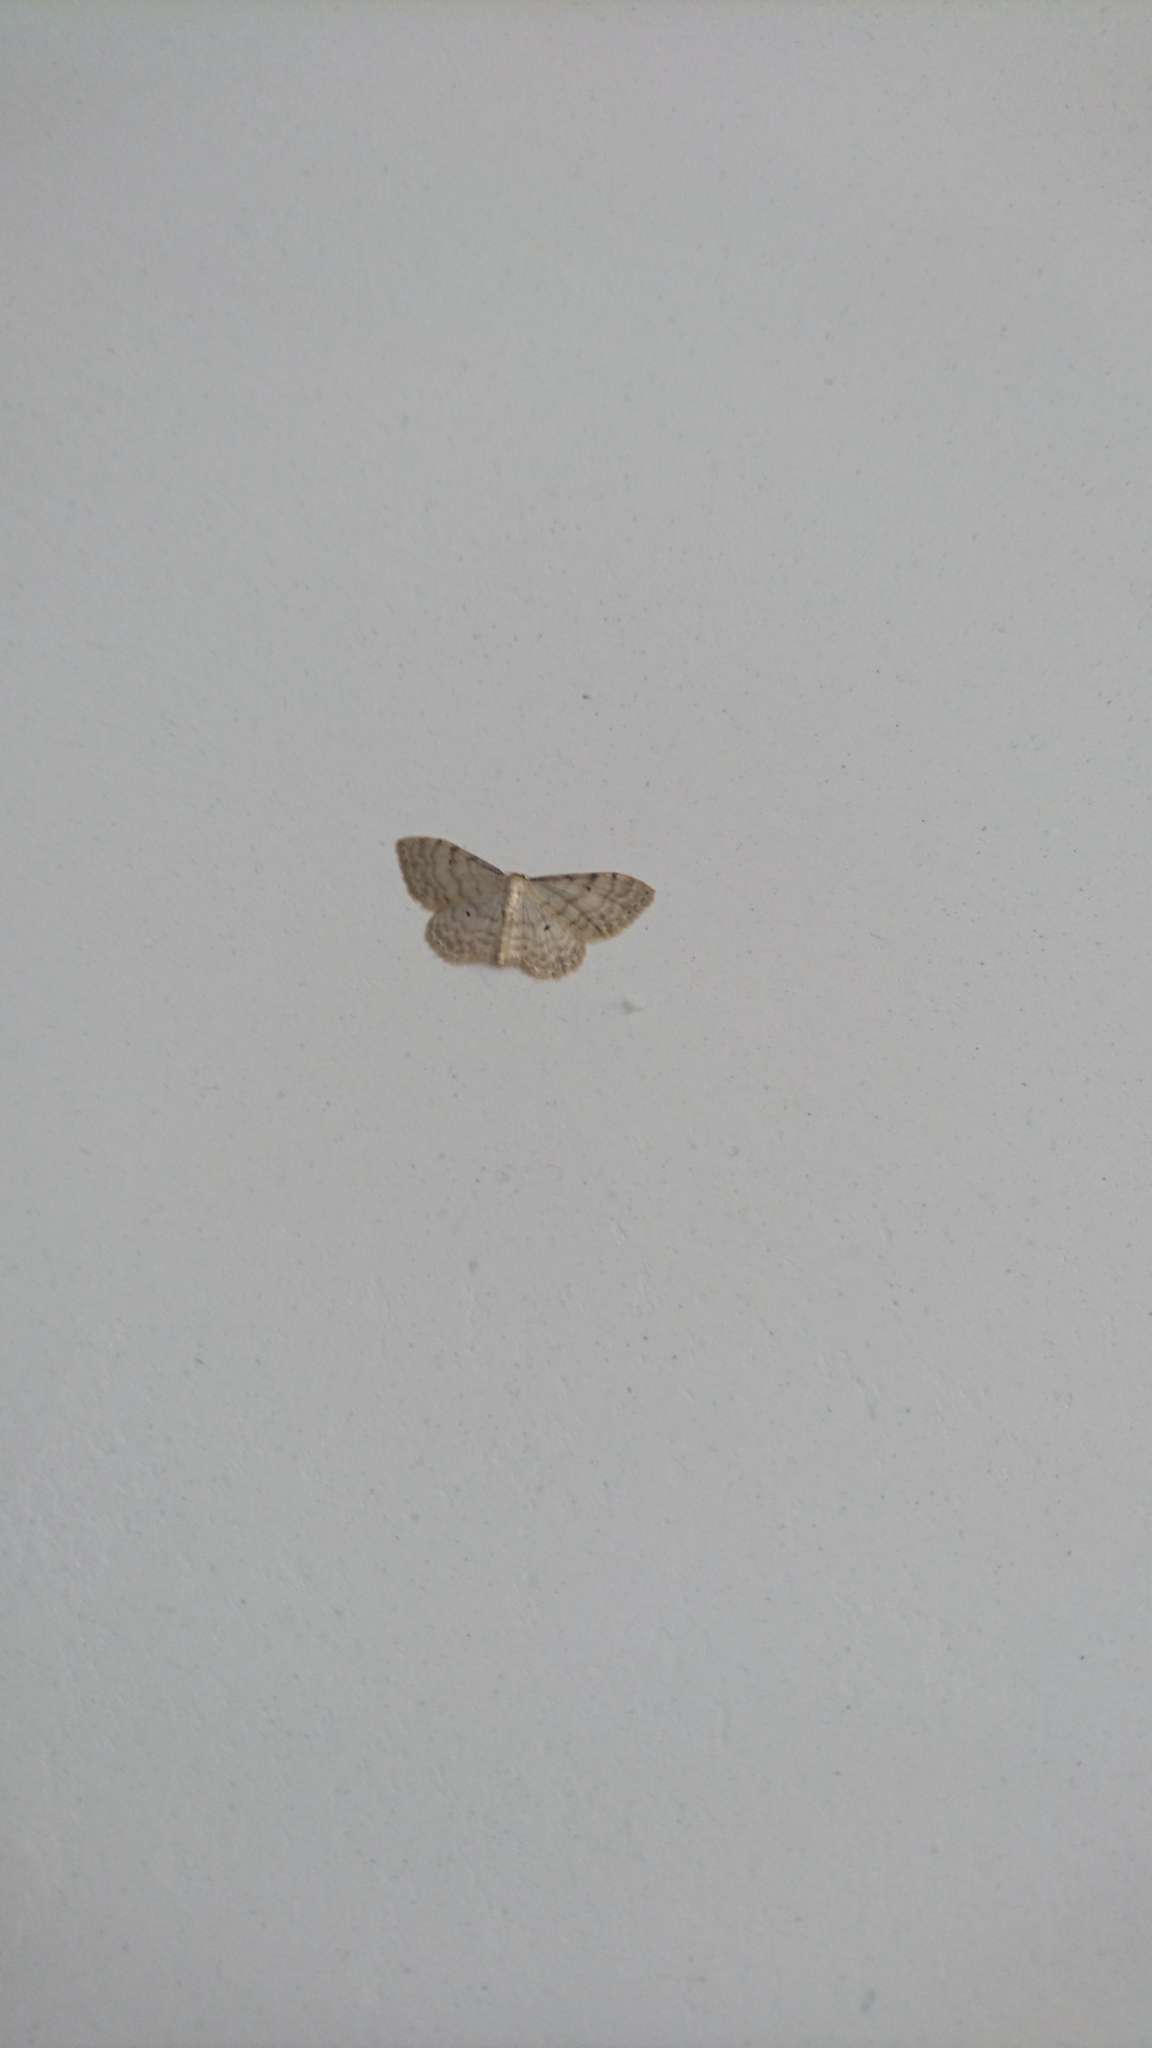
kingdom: Animalia
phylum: Arthropoda
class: Insecta
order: Lepidoptera
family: Geometridae
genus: Idaea
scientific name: Idaea fuscovenosa
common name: Dwarf cream wave
